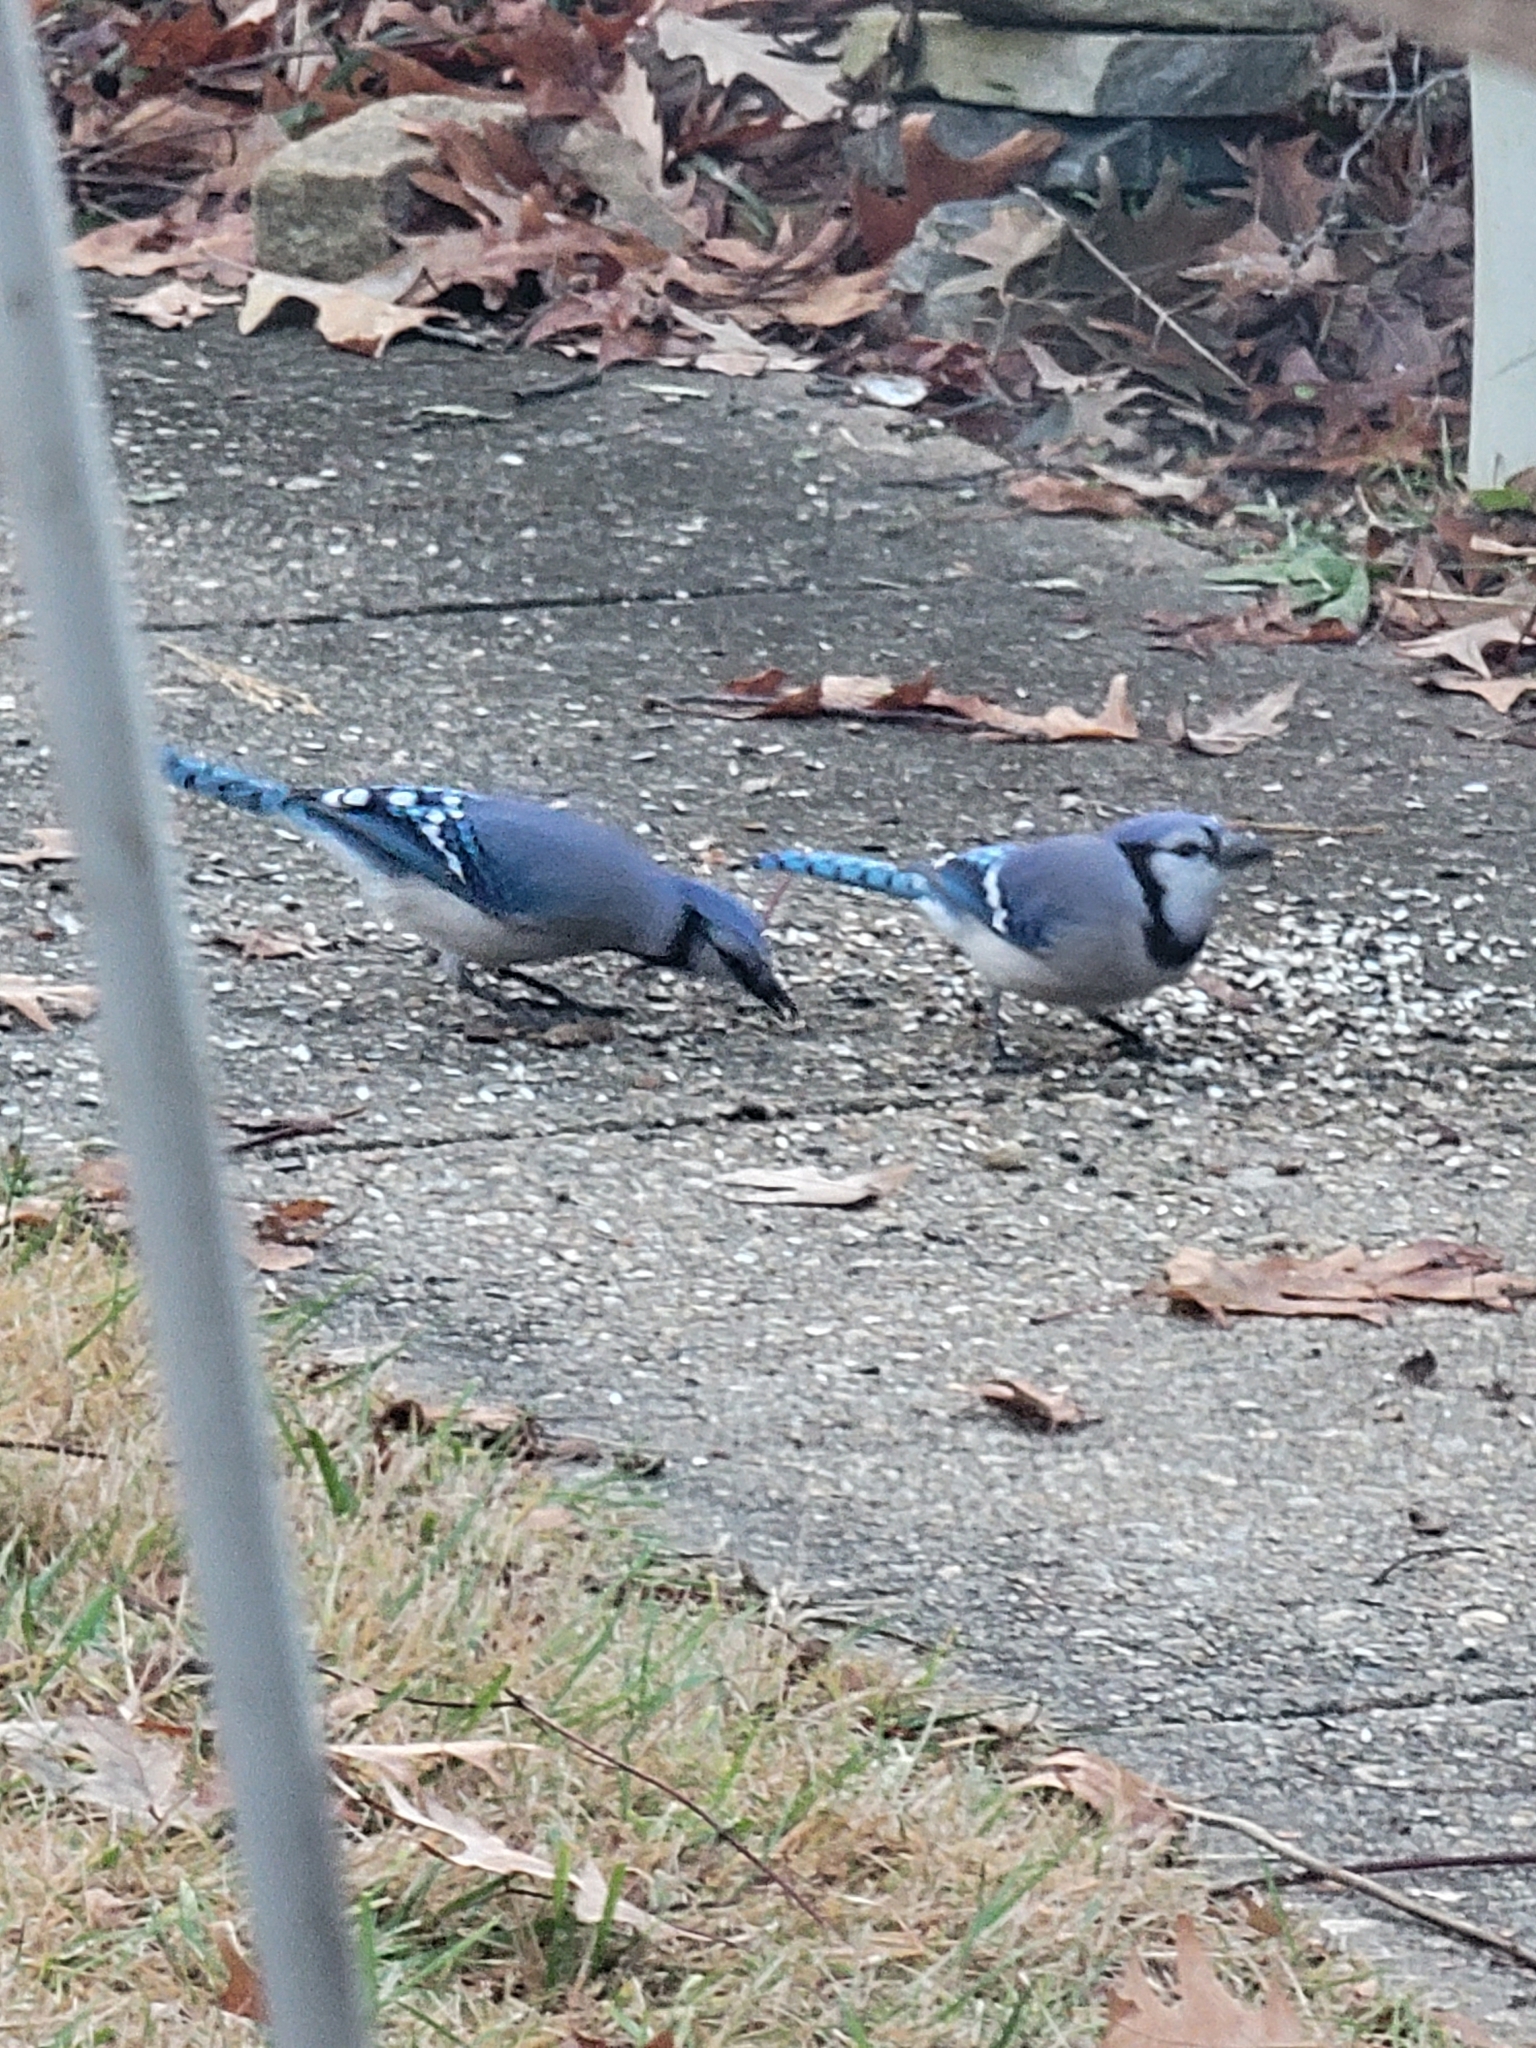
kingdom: Animalia
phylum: Chordata
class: Aves
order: Passeriformes
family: Corvidae
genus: Cyanocitta
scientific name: Cyanocitta cristata
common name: Blue jay
